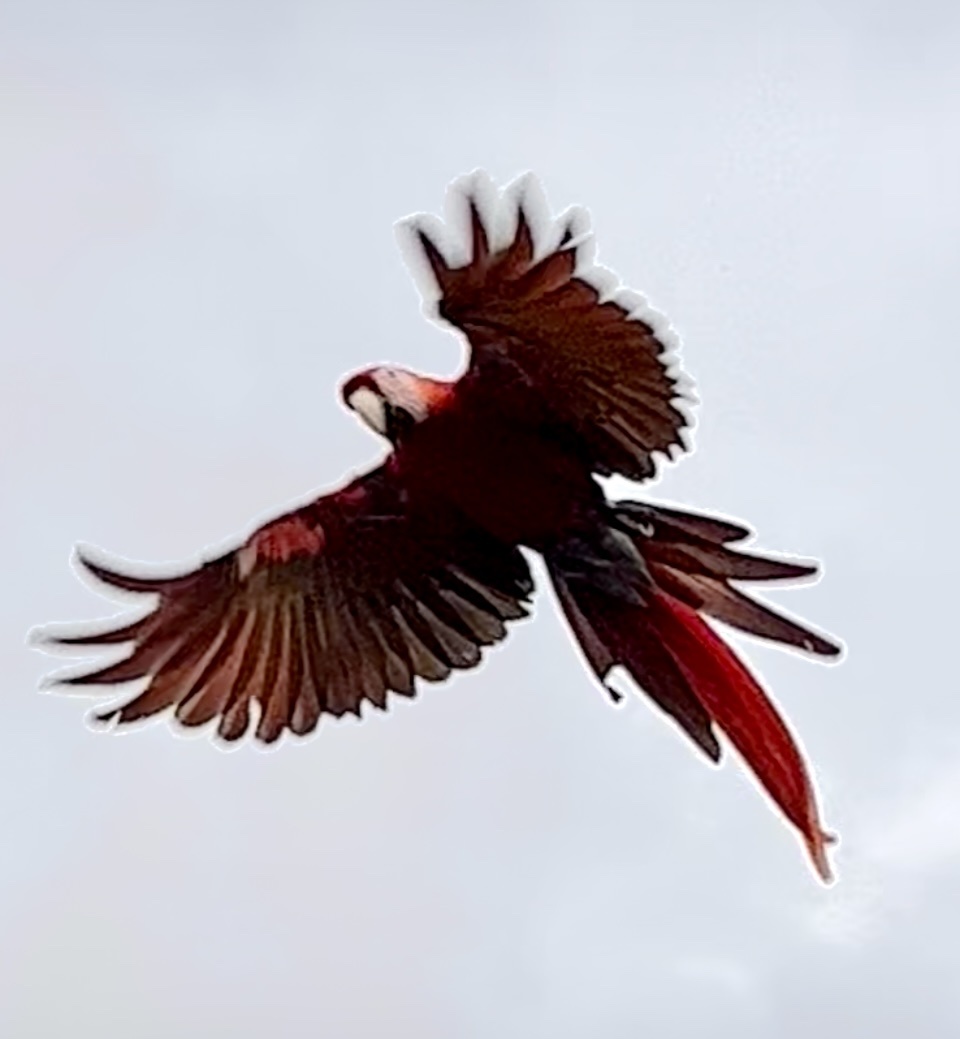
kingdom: Animalia
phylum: Chordata
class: Aves
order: Psittaciformes
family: Psittacidae
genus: Ara
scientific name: Ara macao
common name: Scarlet macaw
